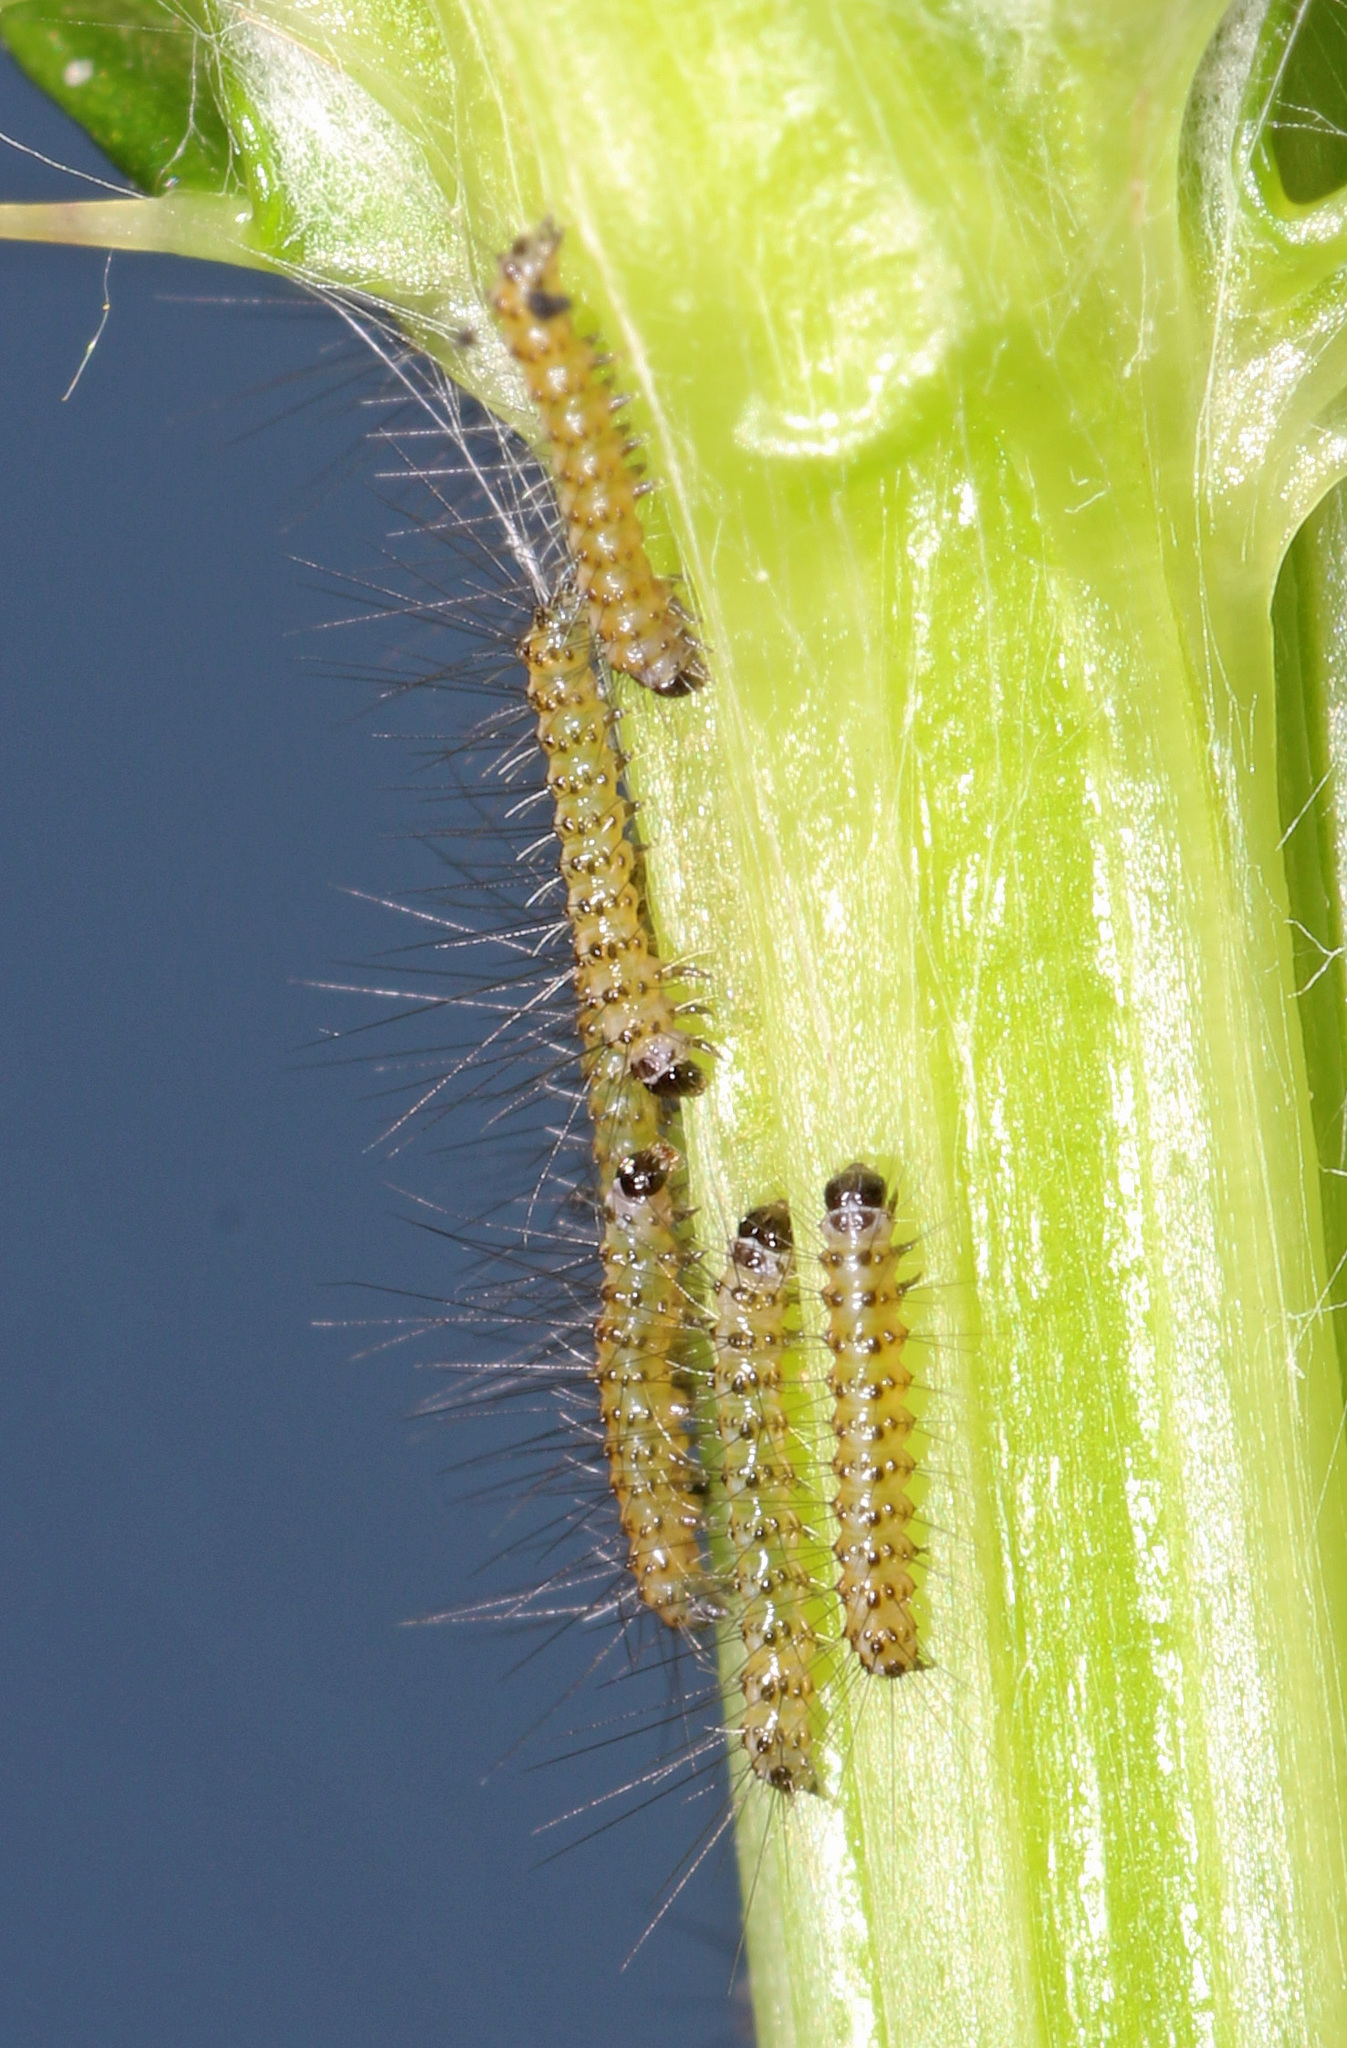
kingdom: Animalia
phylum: Arthropoda
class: Insecta
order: Lepidoptera
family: Erebidae
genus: Hyphantria
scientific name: Hyphantria cunea
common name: American white moth
